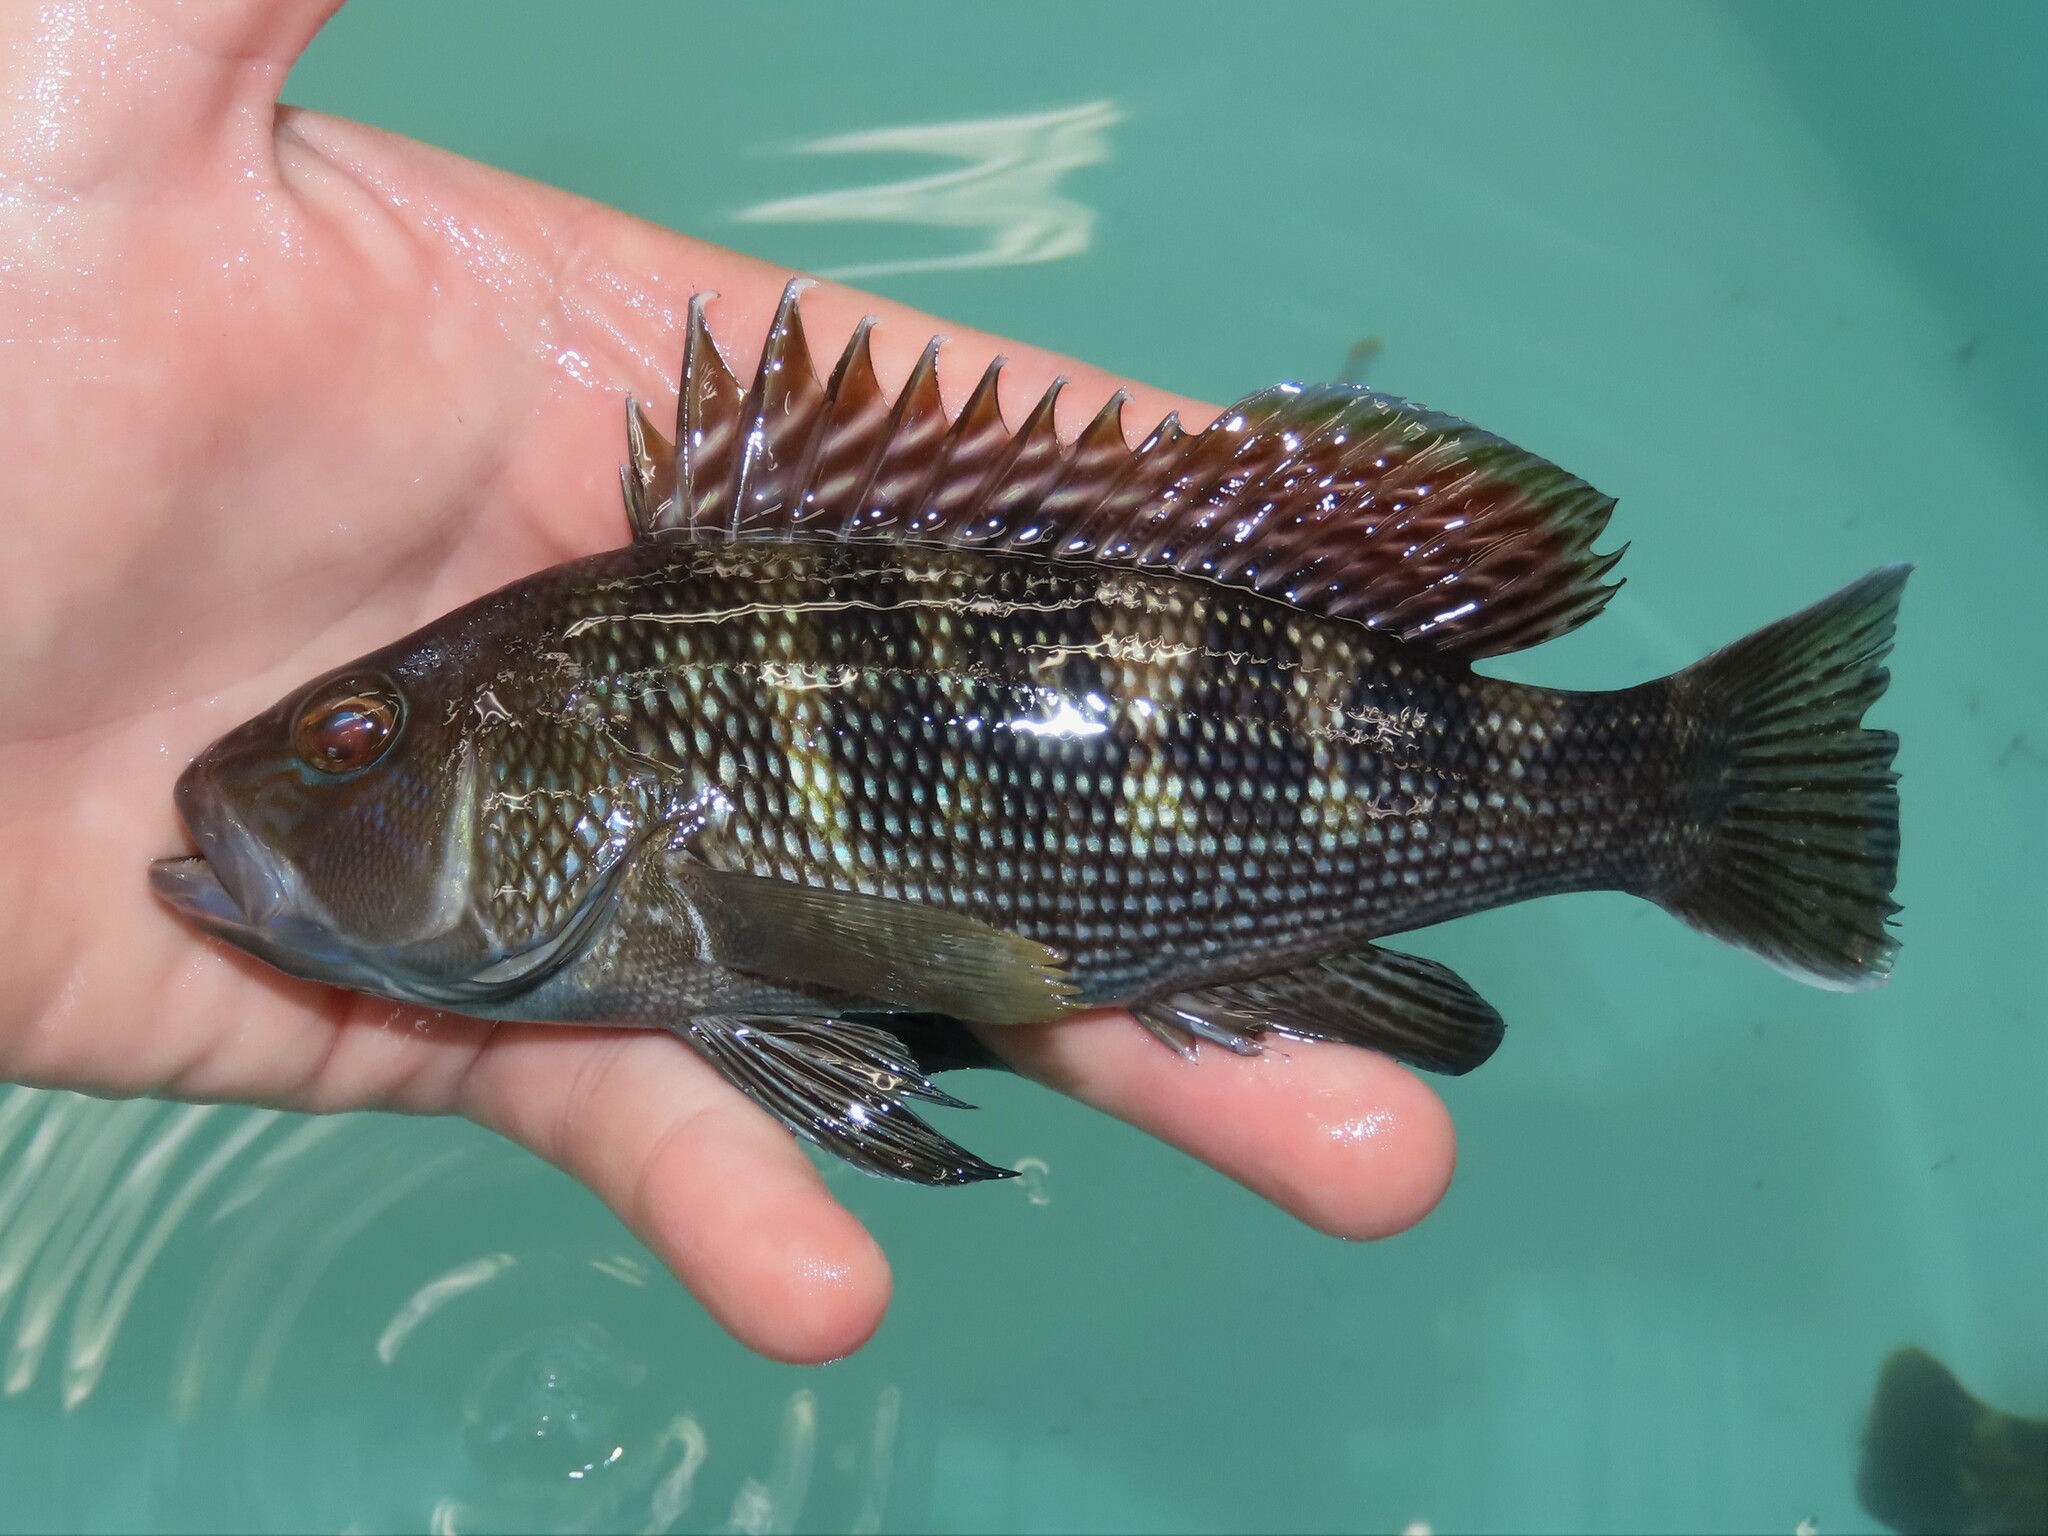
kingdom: Animalia
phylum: Chordata
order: Perciformes
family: Serranidae
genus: Centropristis
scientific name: Centropristis striata
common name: Black sea bass
